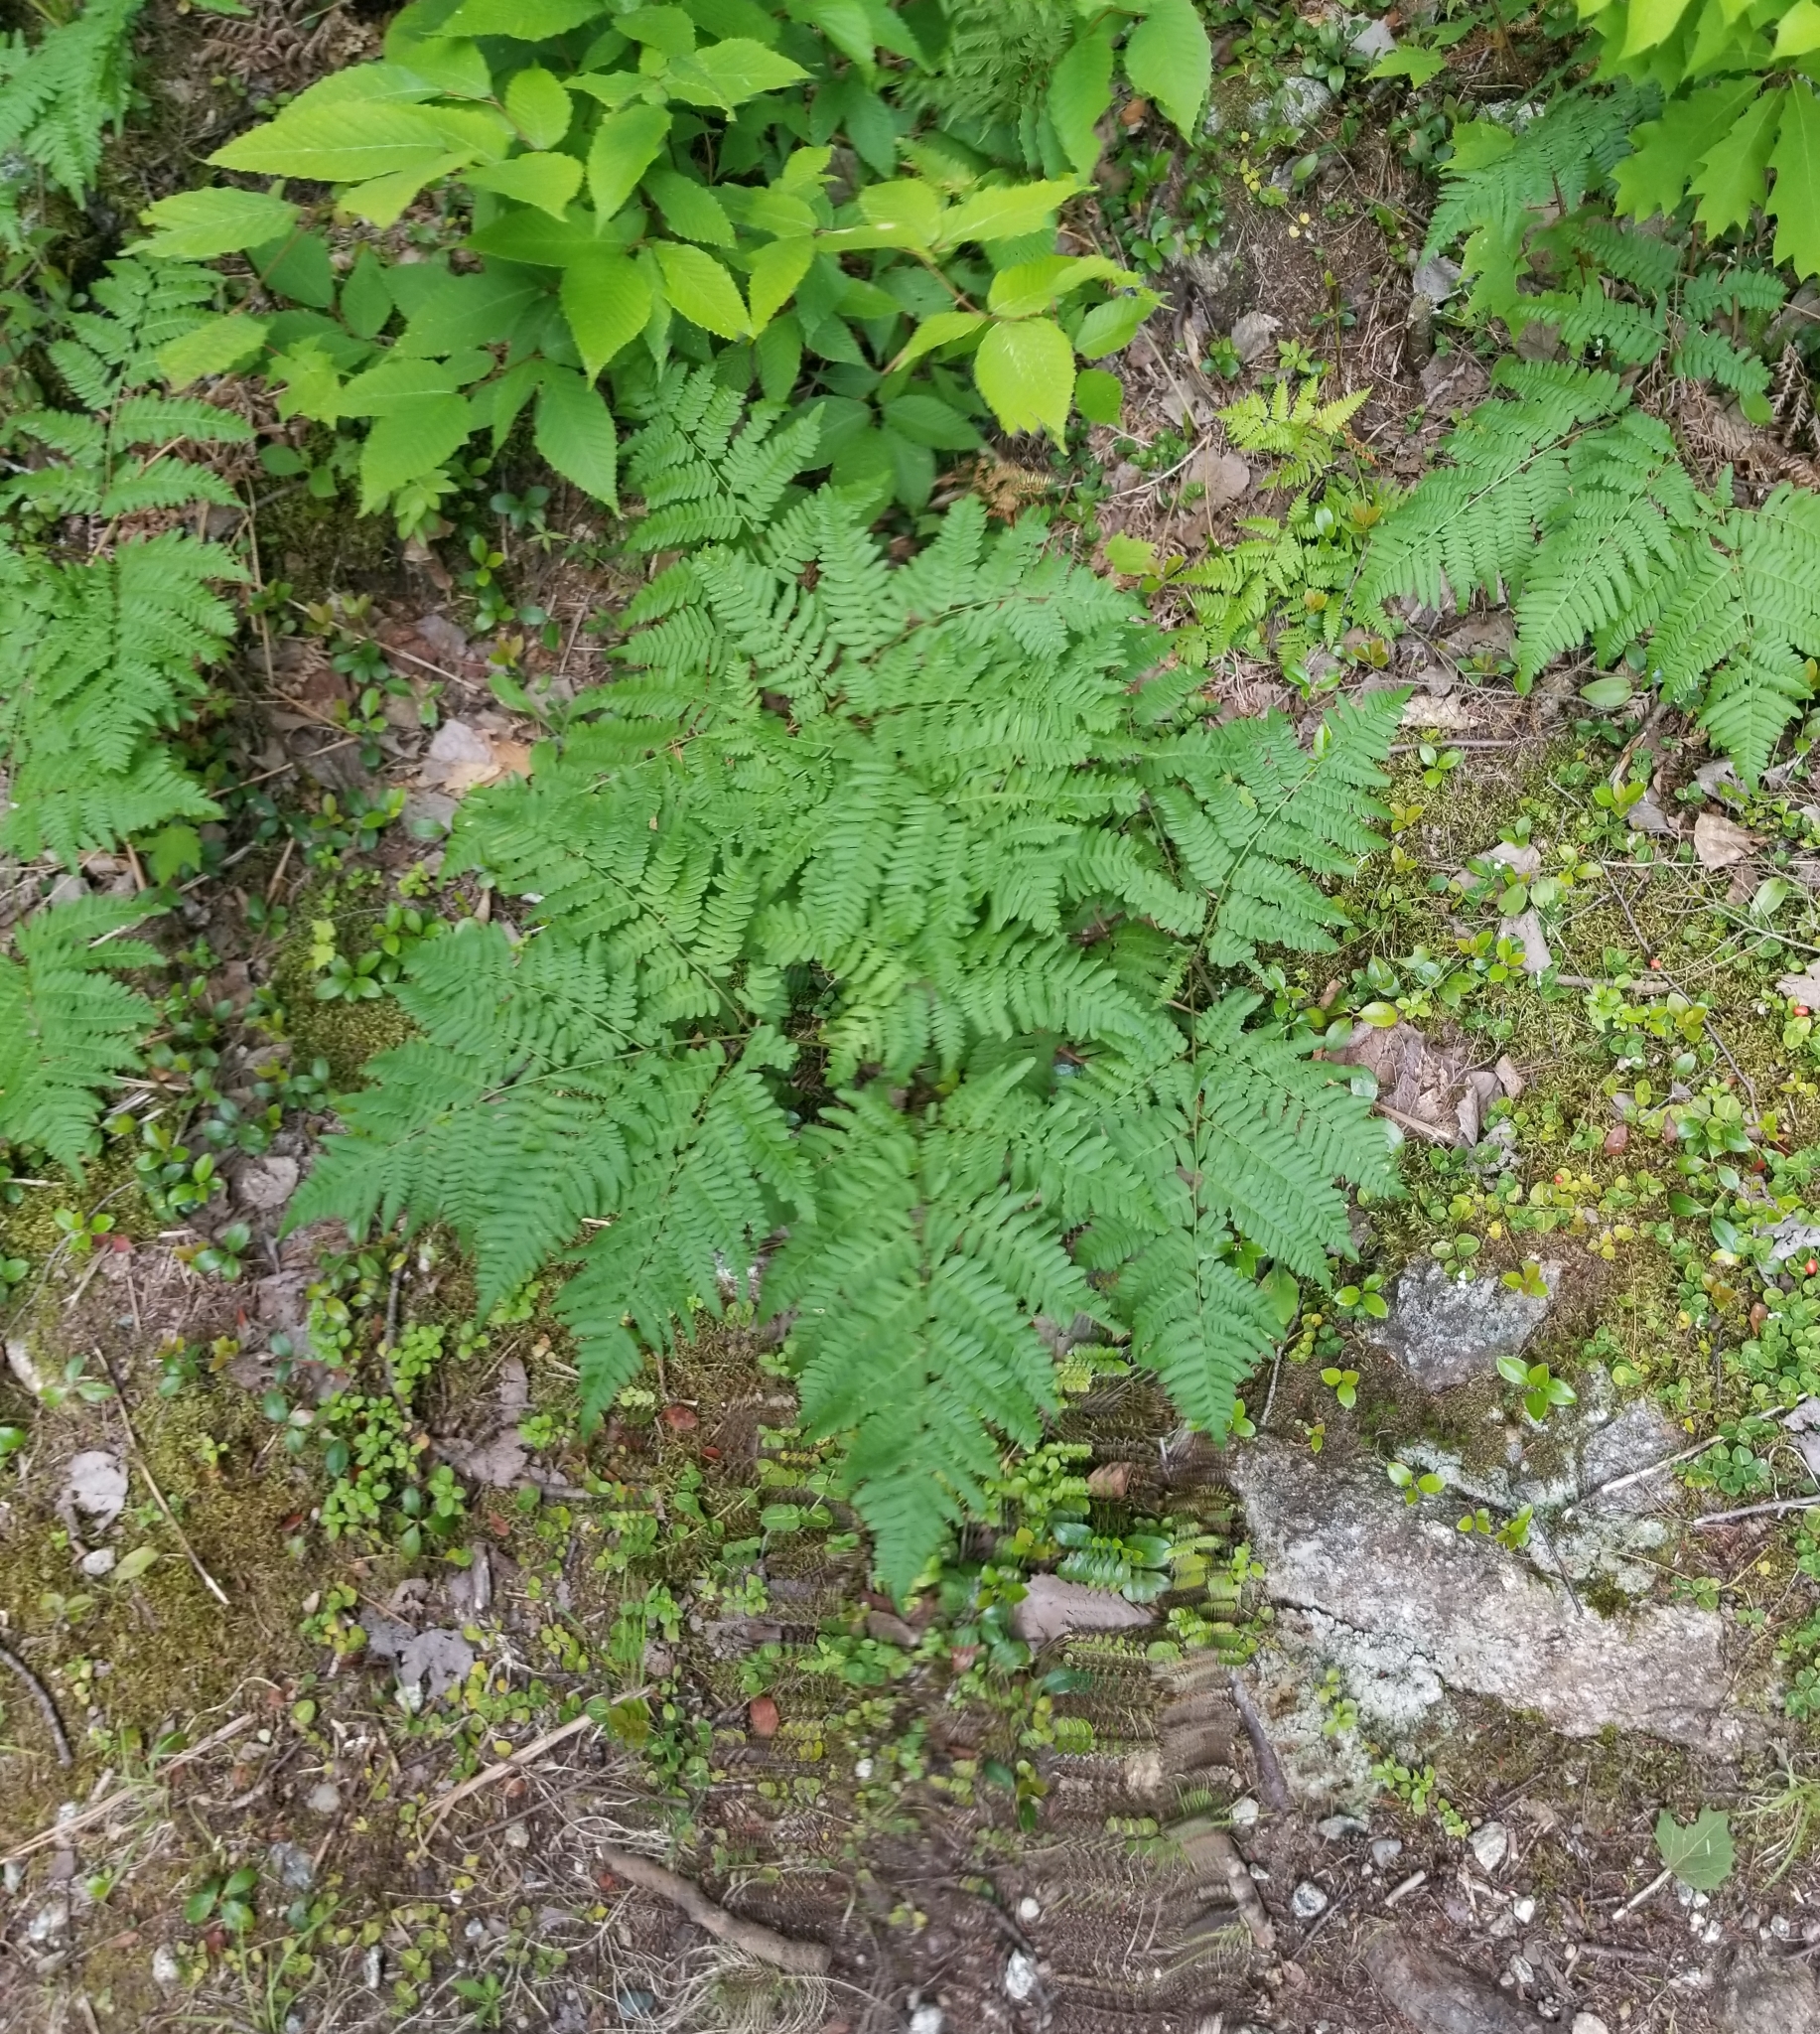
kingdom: Plantae
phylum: Tracheophyta
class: Polypodiopsida
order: Polypodiales
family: Dennstaedtiaceae
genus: Pteridium
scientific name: Pteridium aquilinum
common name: Bracken
